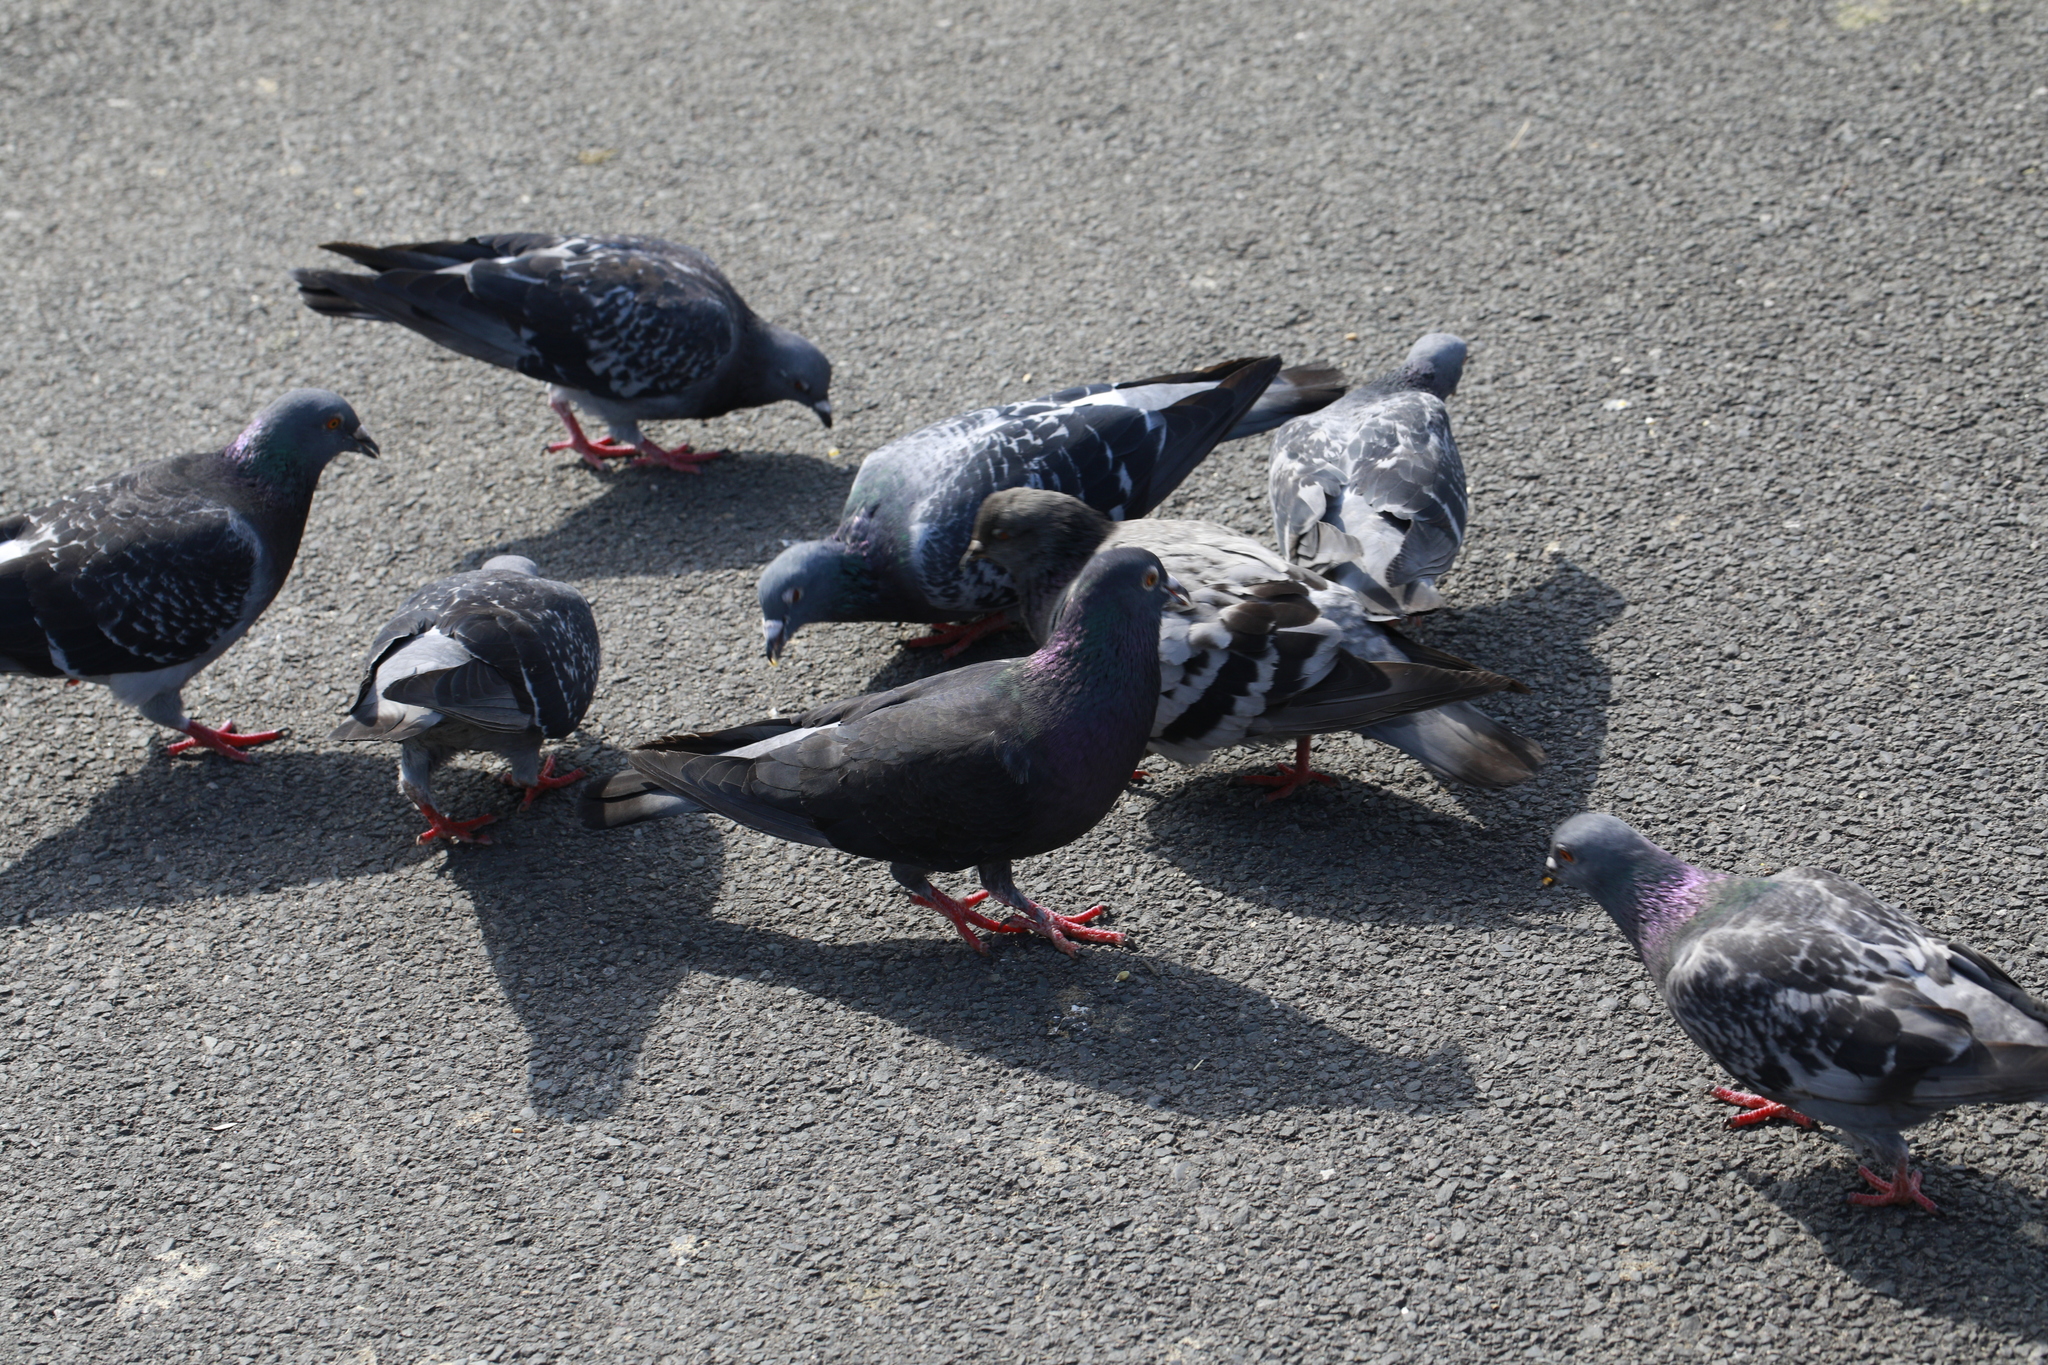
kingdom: Animalia
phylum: Chordata
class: Aves
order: Columbiformes
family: Columbidae
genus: Columba
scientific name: Columba livia
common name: Rock pigeon
